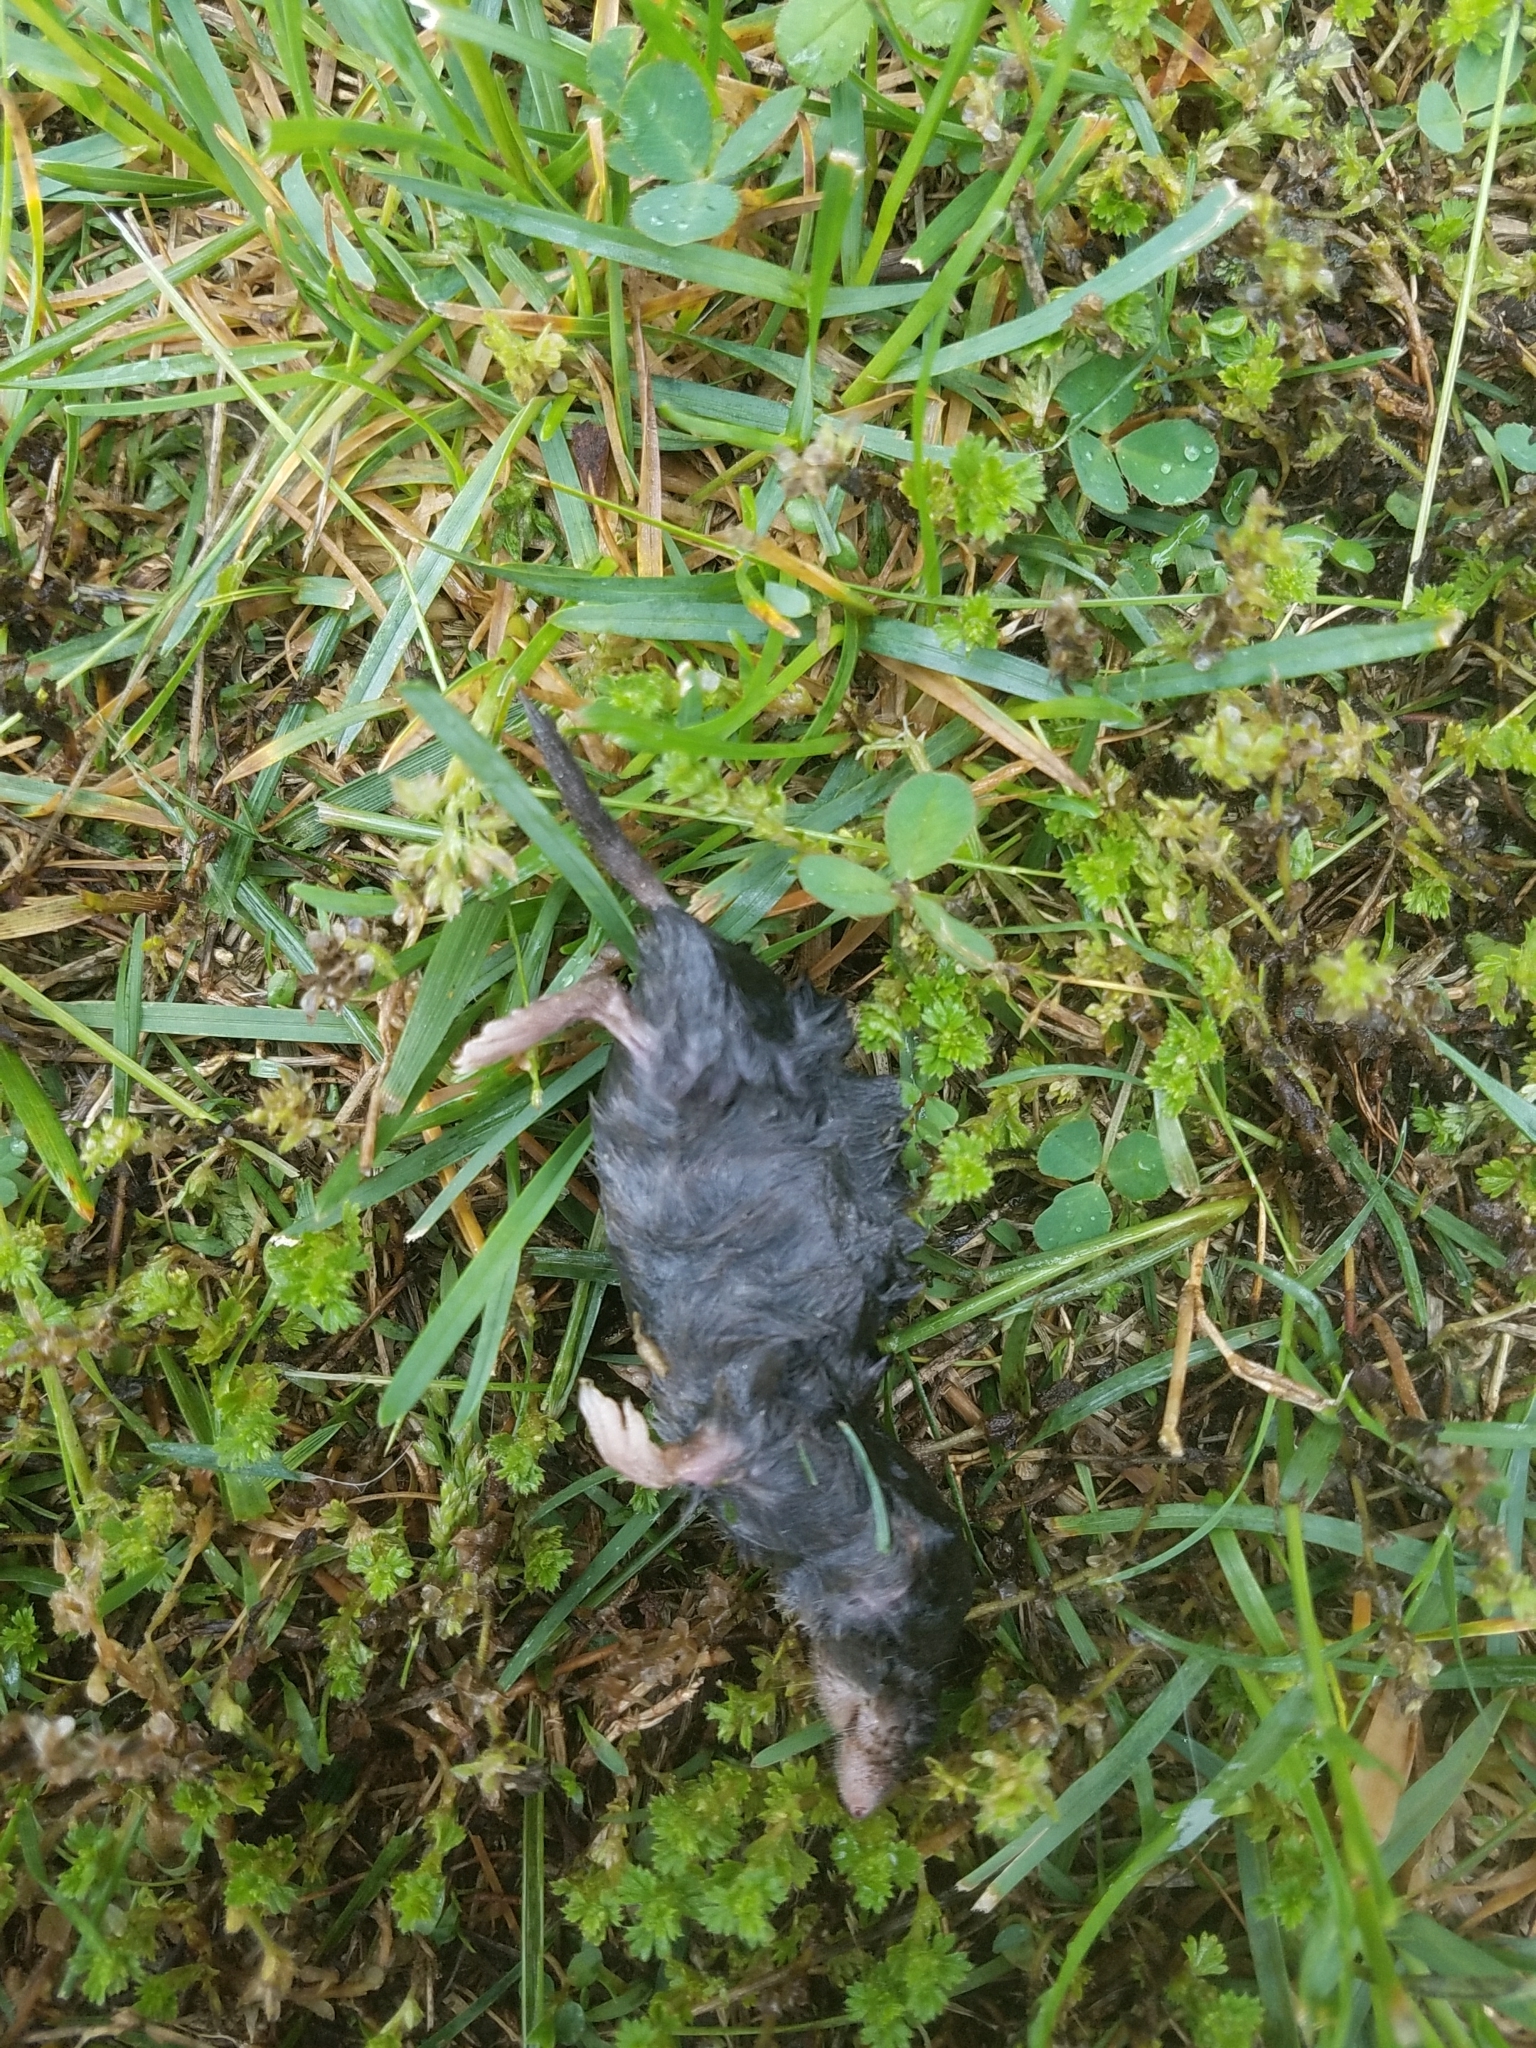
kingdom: Animalia
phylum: Chordata
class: Mammalia
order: Soricomorpha
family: Soricidae
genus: Blarina
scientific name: Blarina brevicauda
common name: Northern short-tailed shrew
